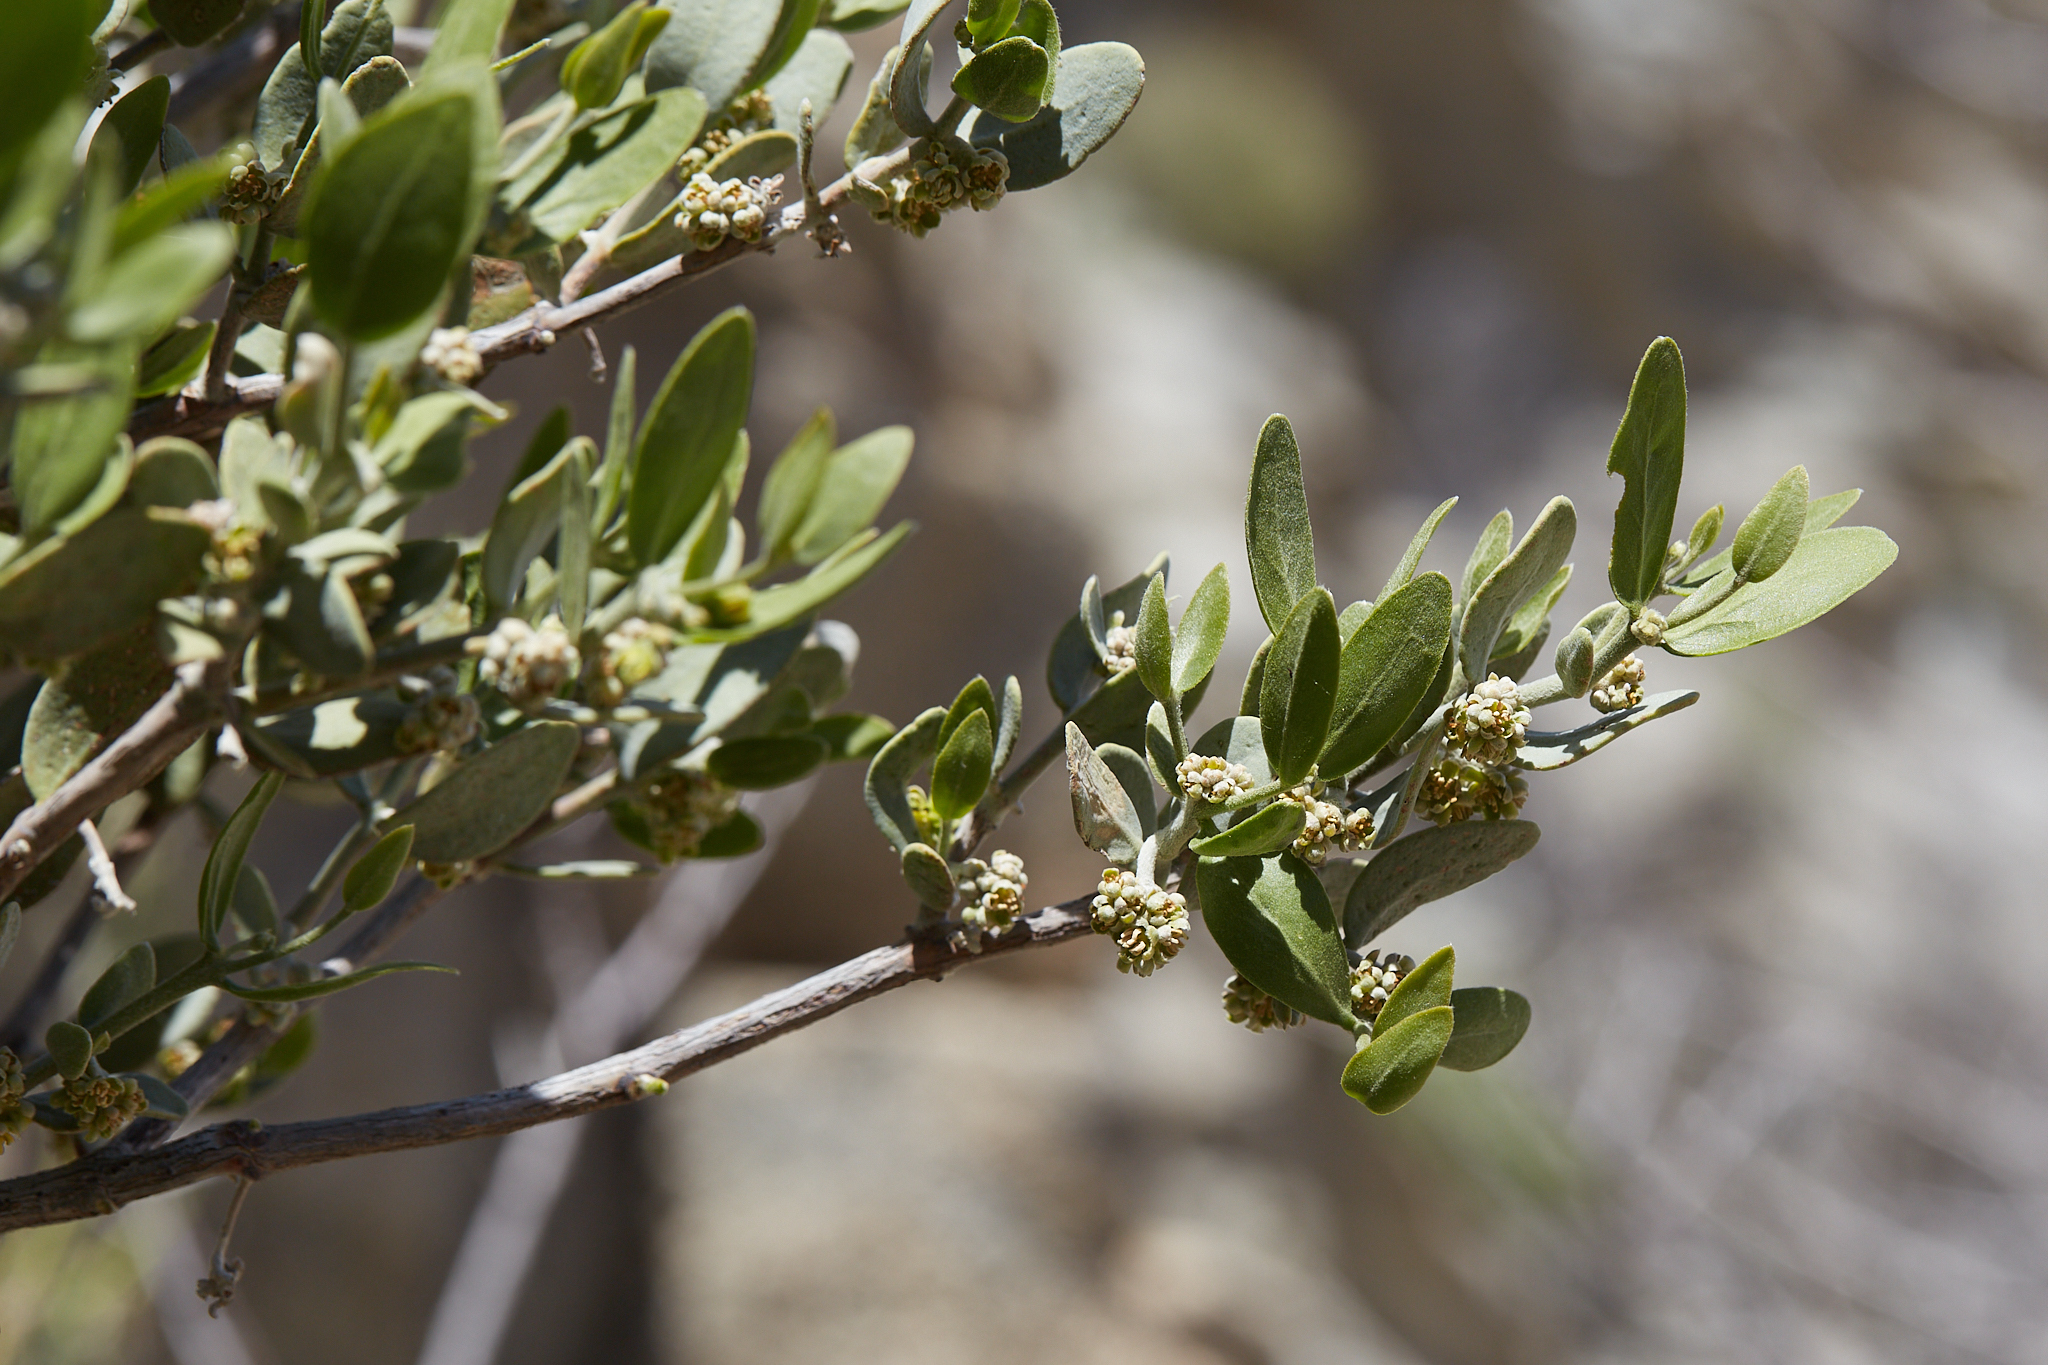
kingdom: Plantae
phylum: Tracheophyta
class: Magnoliopsida
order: Caryophyllales
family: Simmondsiaceae
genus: Simmondsia
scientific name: Simmondsia chinensis
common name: Jojoba
